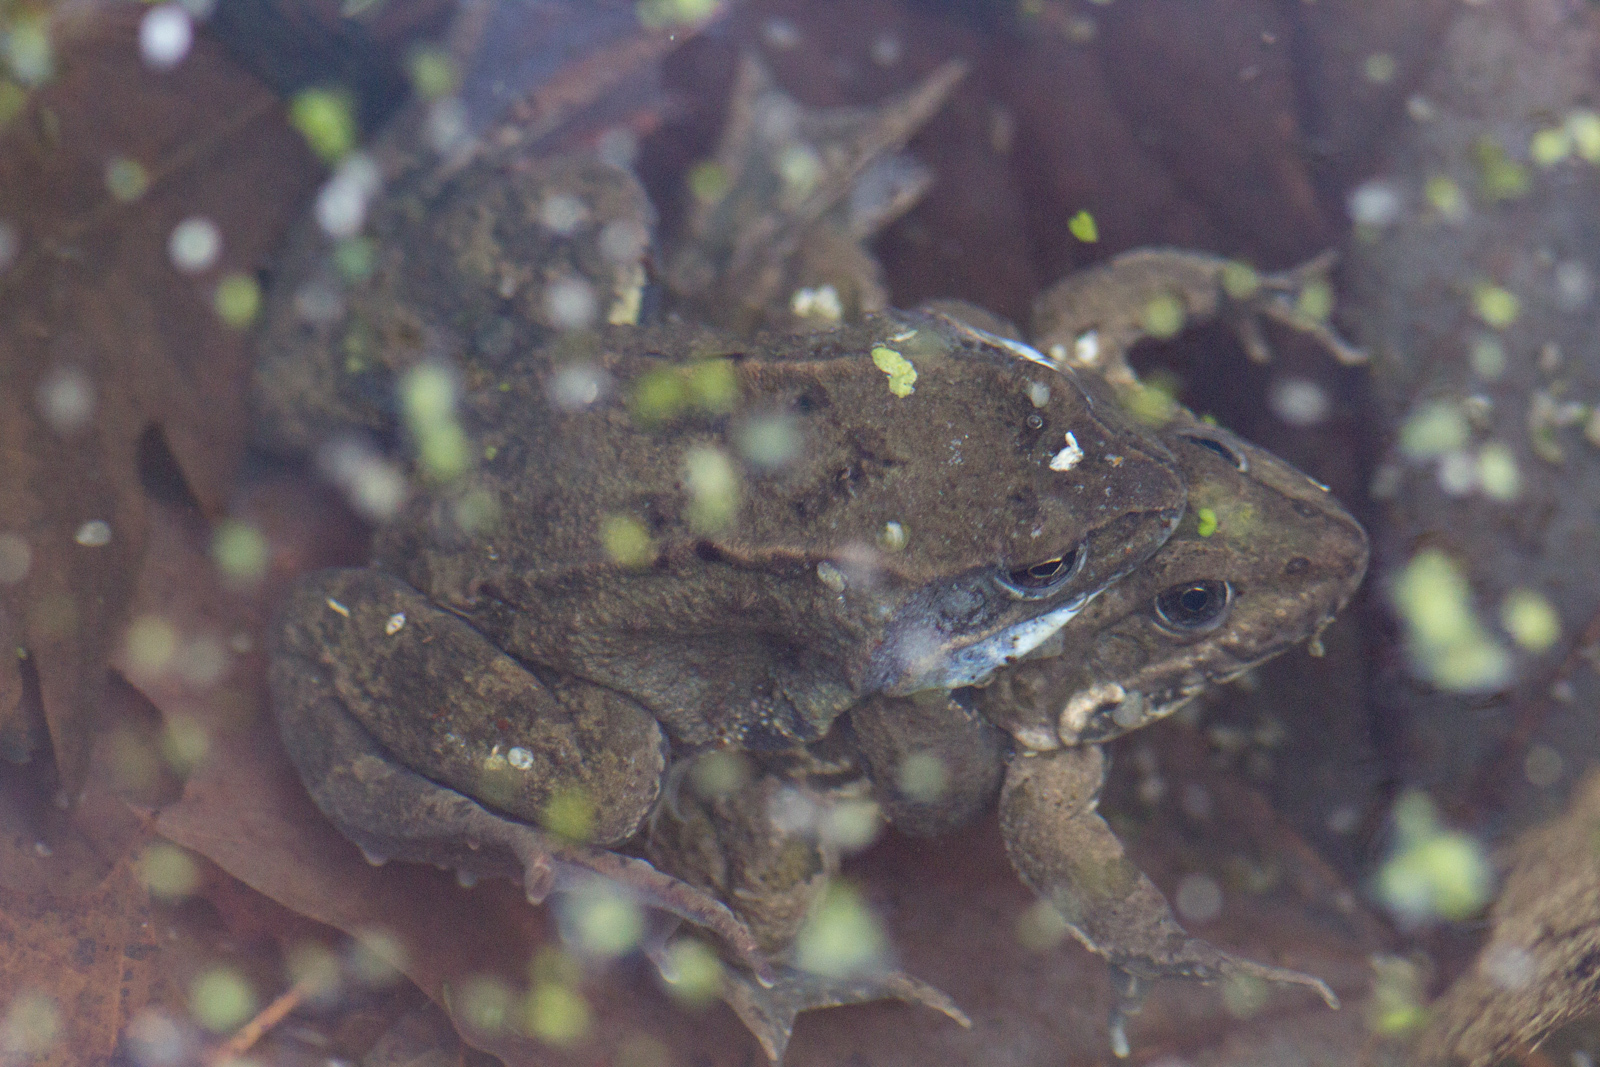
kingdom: Animalia
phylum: Chordata
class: Amphibia
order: Anura
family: Ranidae
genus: Rana
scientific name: Rana temporaria
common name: Common frog
